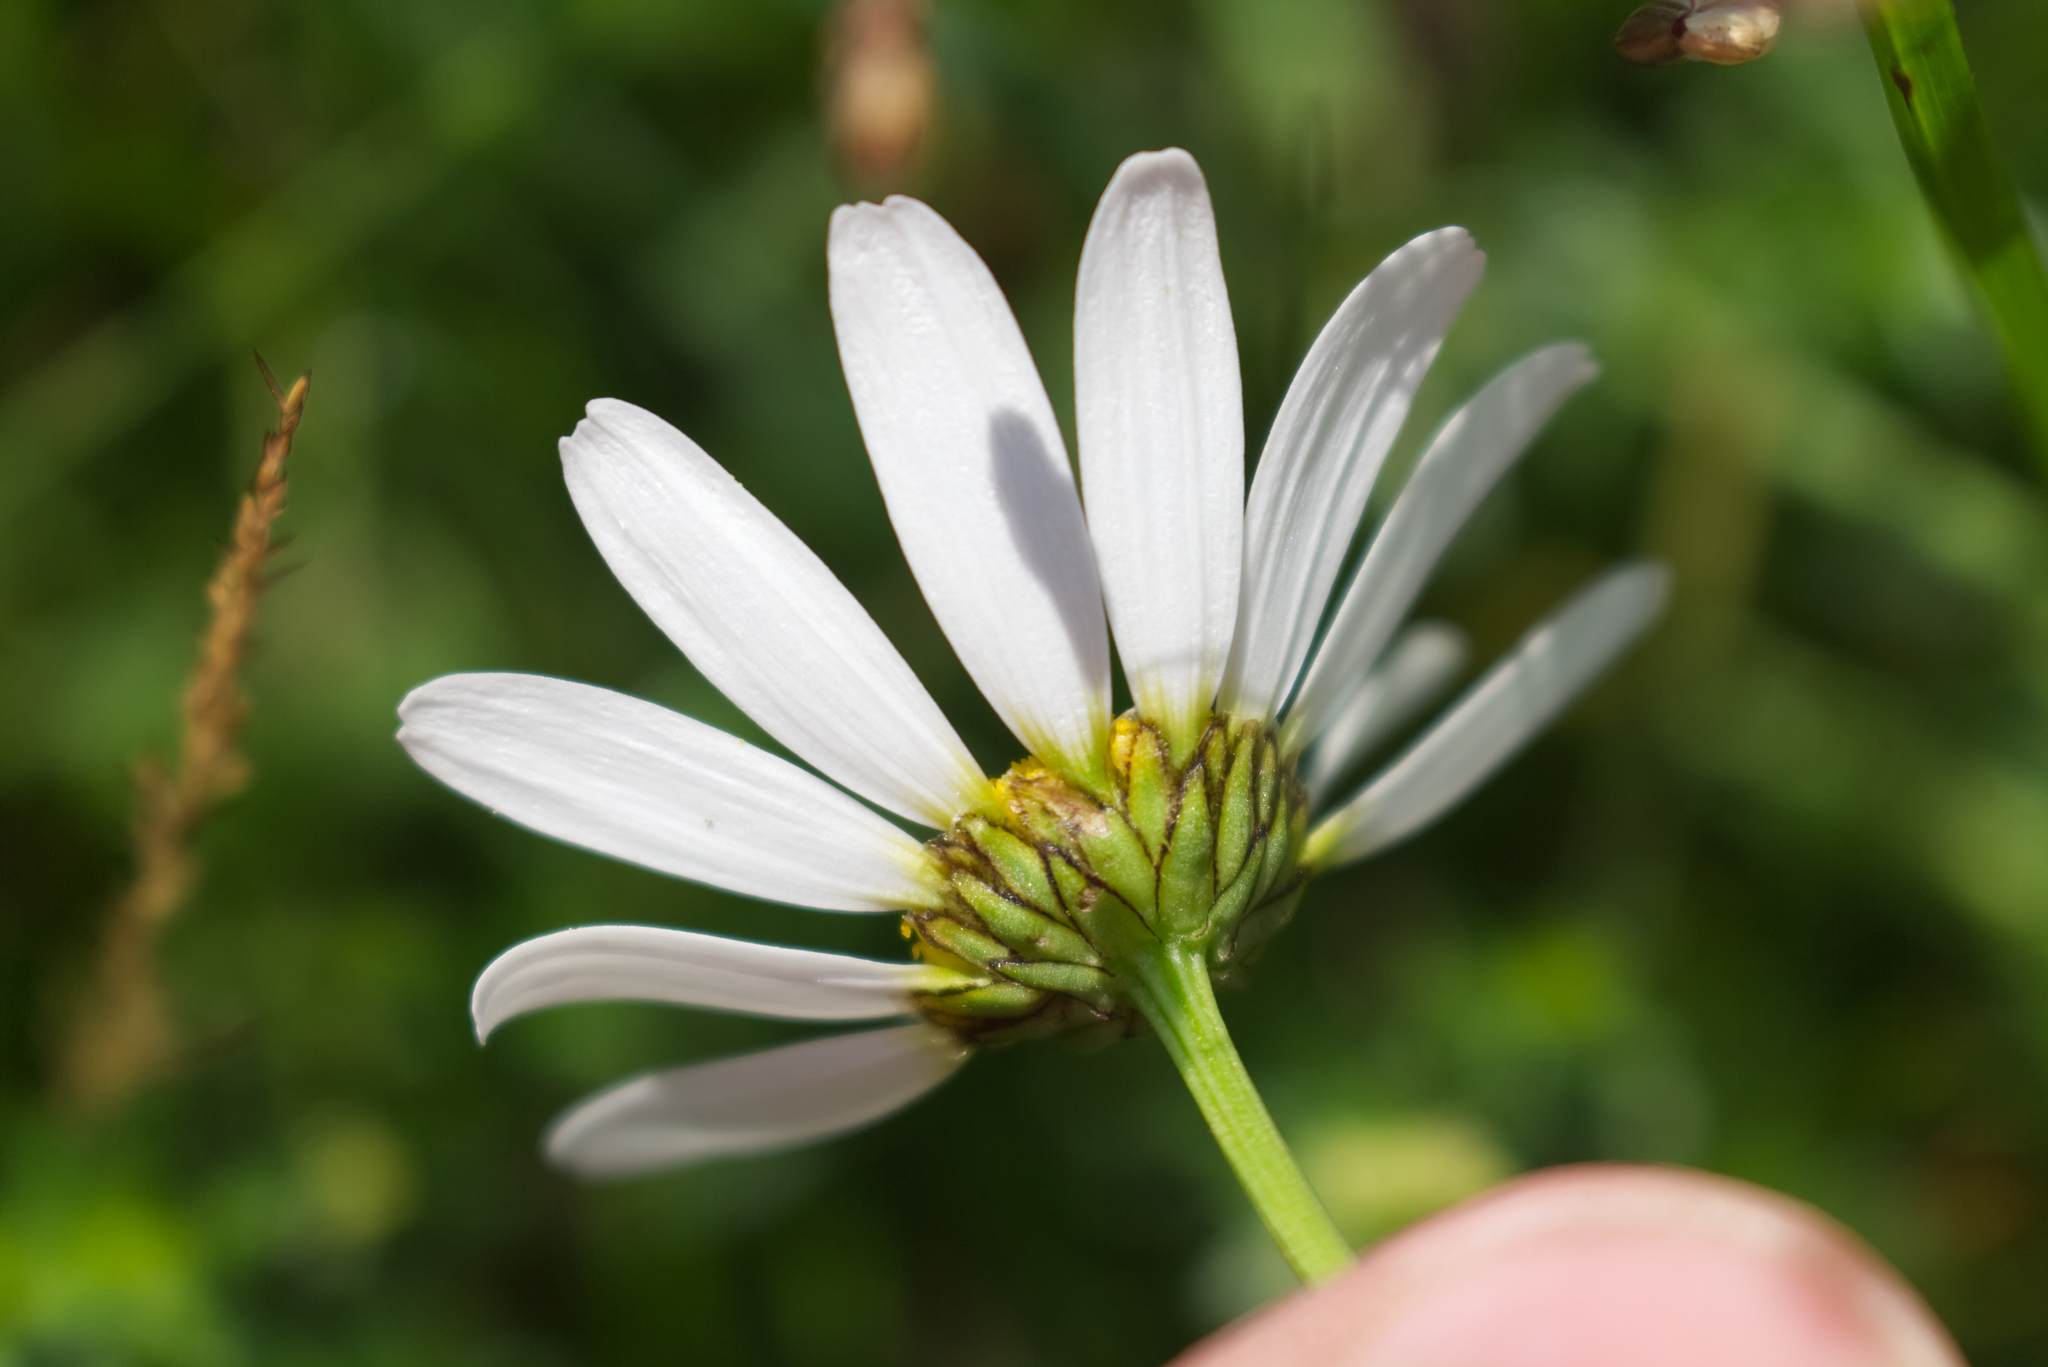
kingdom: Plantae
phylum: Tracheophyta
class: Magnoliopsida
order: Asterales
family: Asteraceae
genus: Leucanthemum
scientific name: Leucanthemum vulgare
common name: Oxeye daisy
